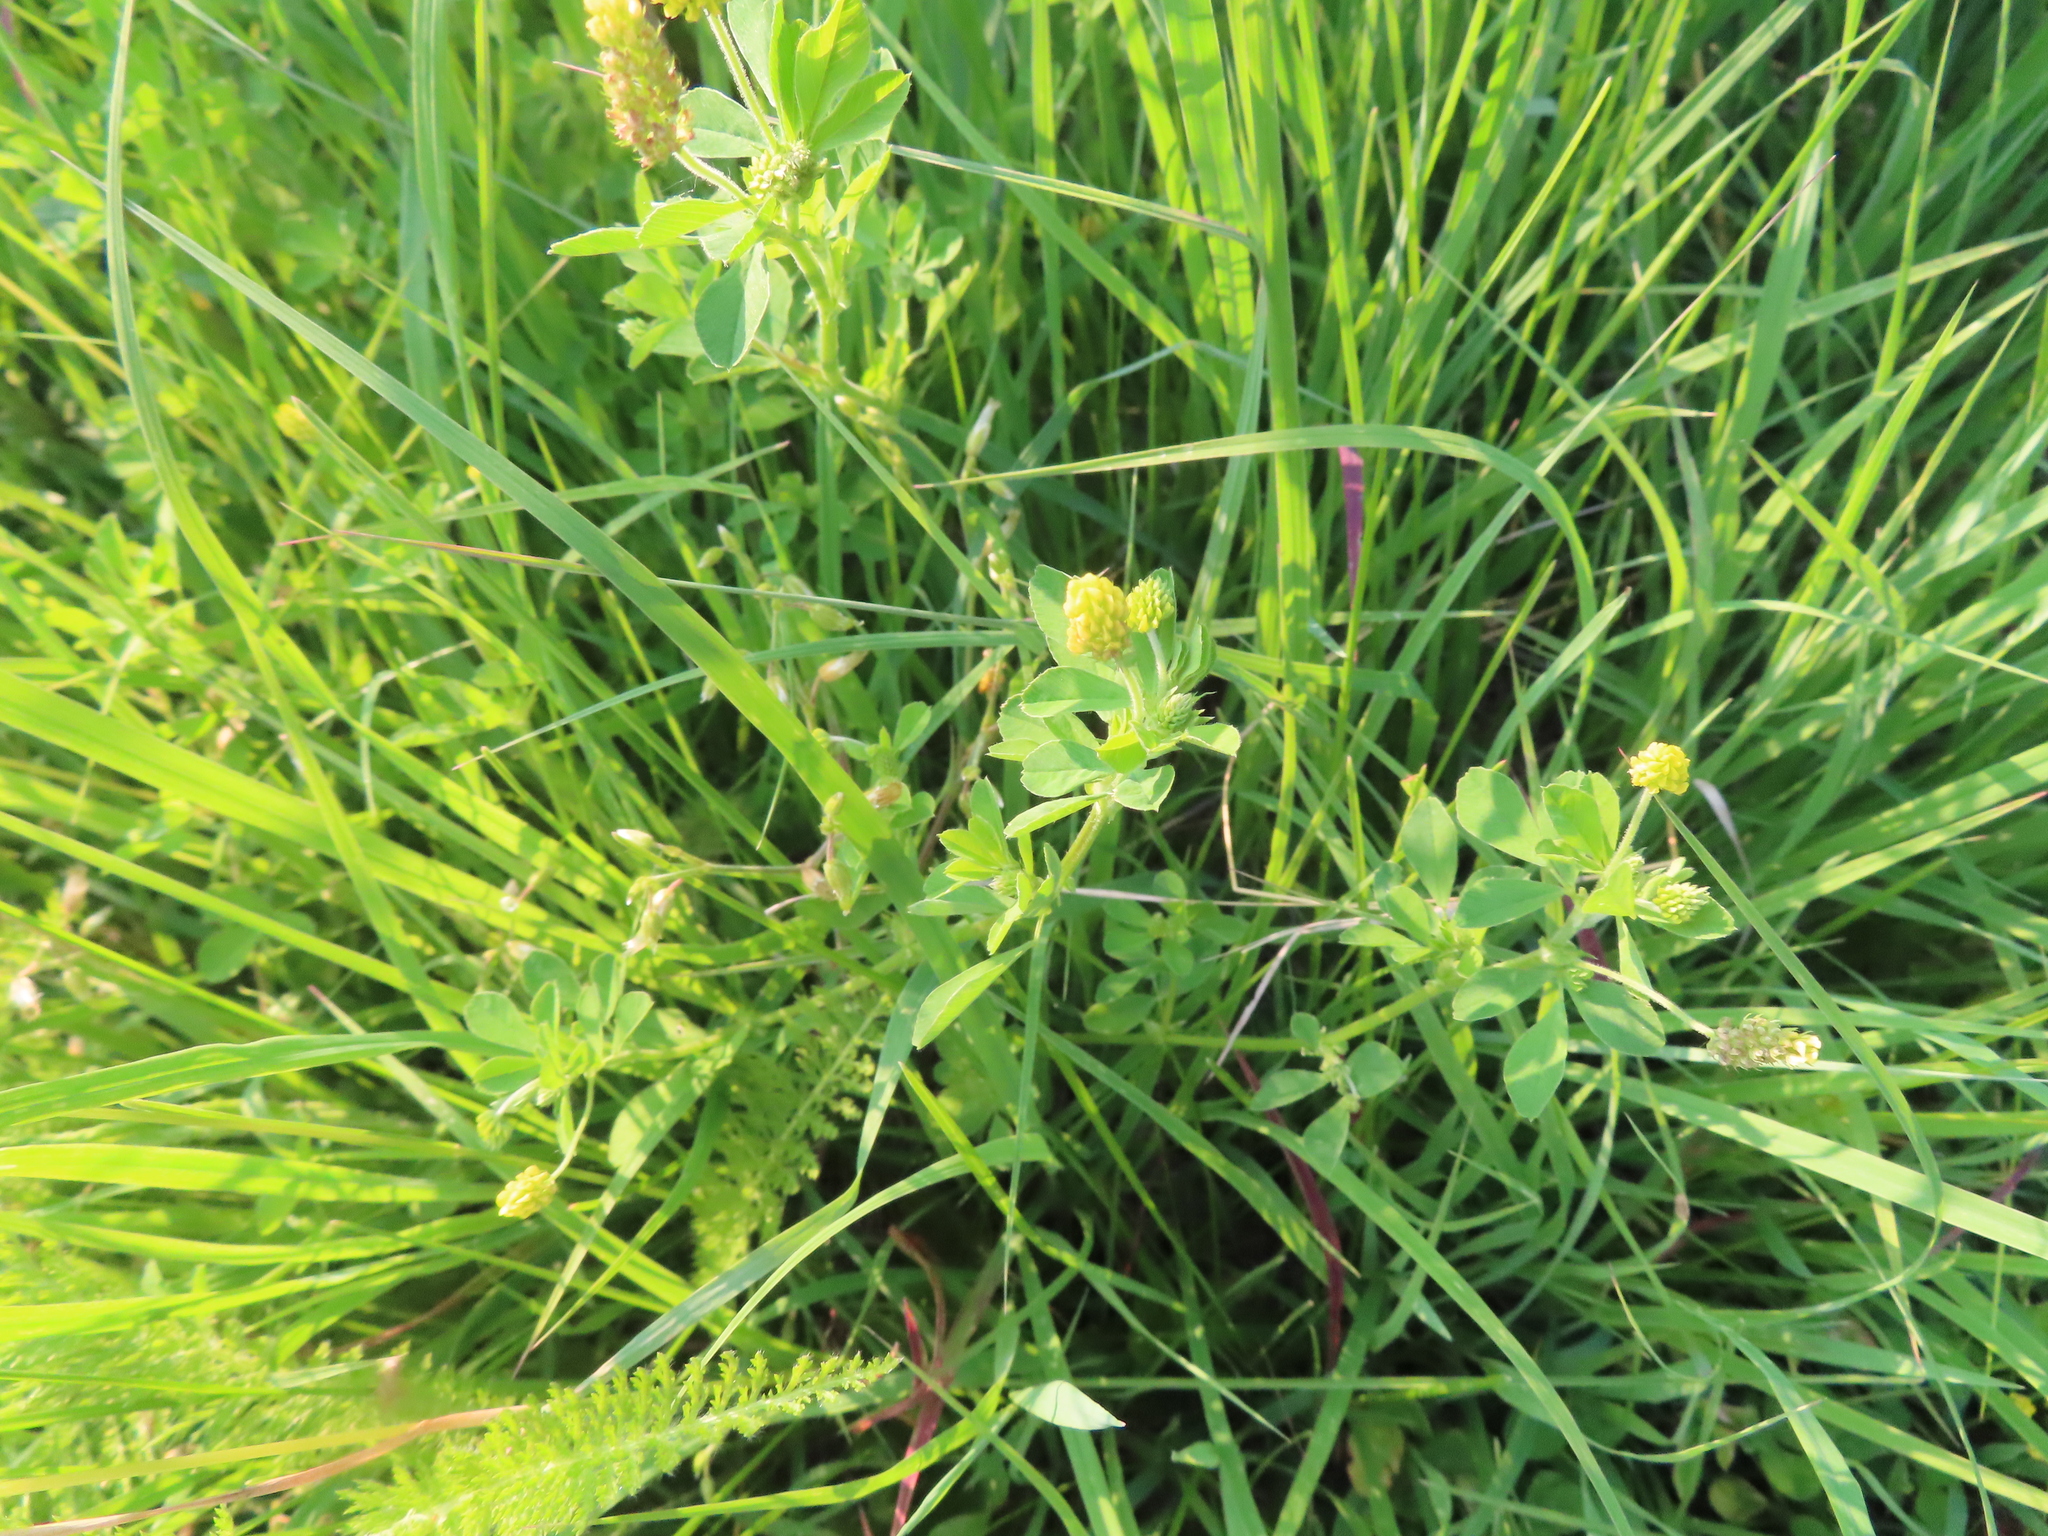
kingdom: Plantae
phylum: Tracheophyta
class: Magnoliopsida
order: Fabales
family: Fabaceae
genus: Medicago
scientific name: Medicago lupulina
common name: Black medick
